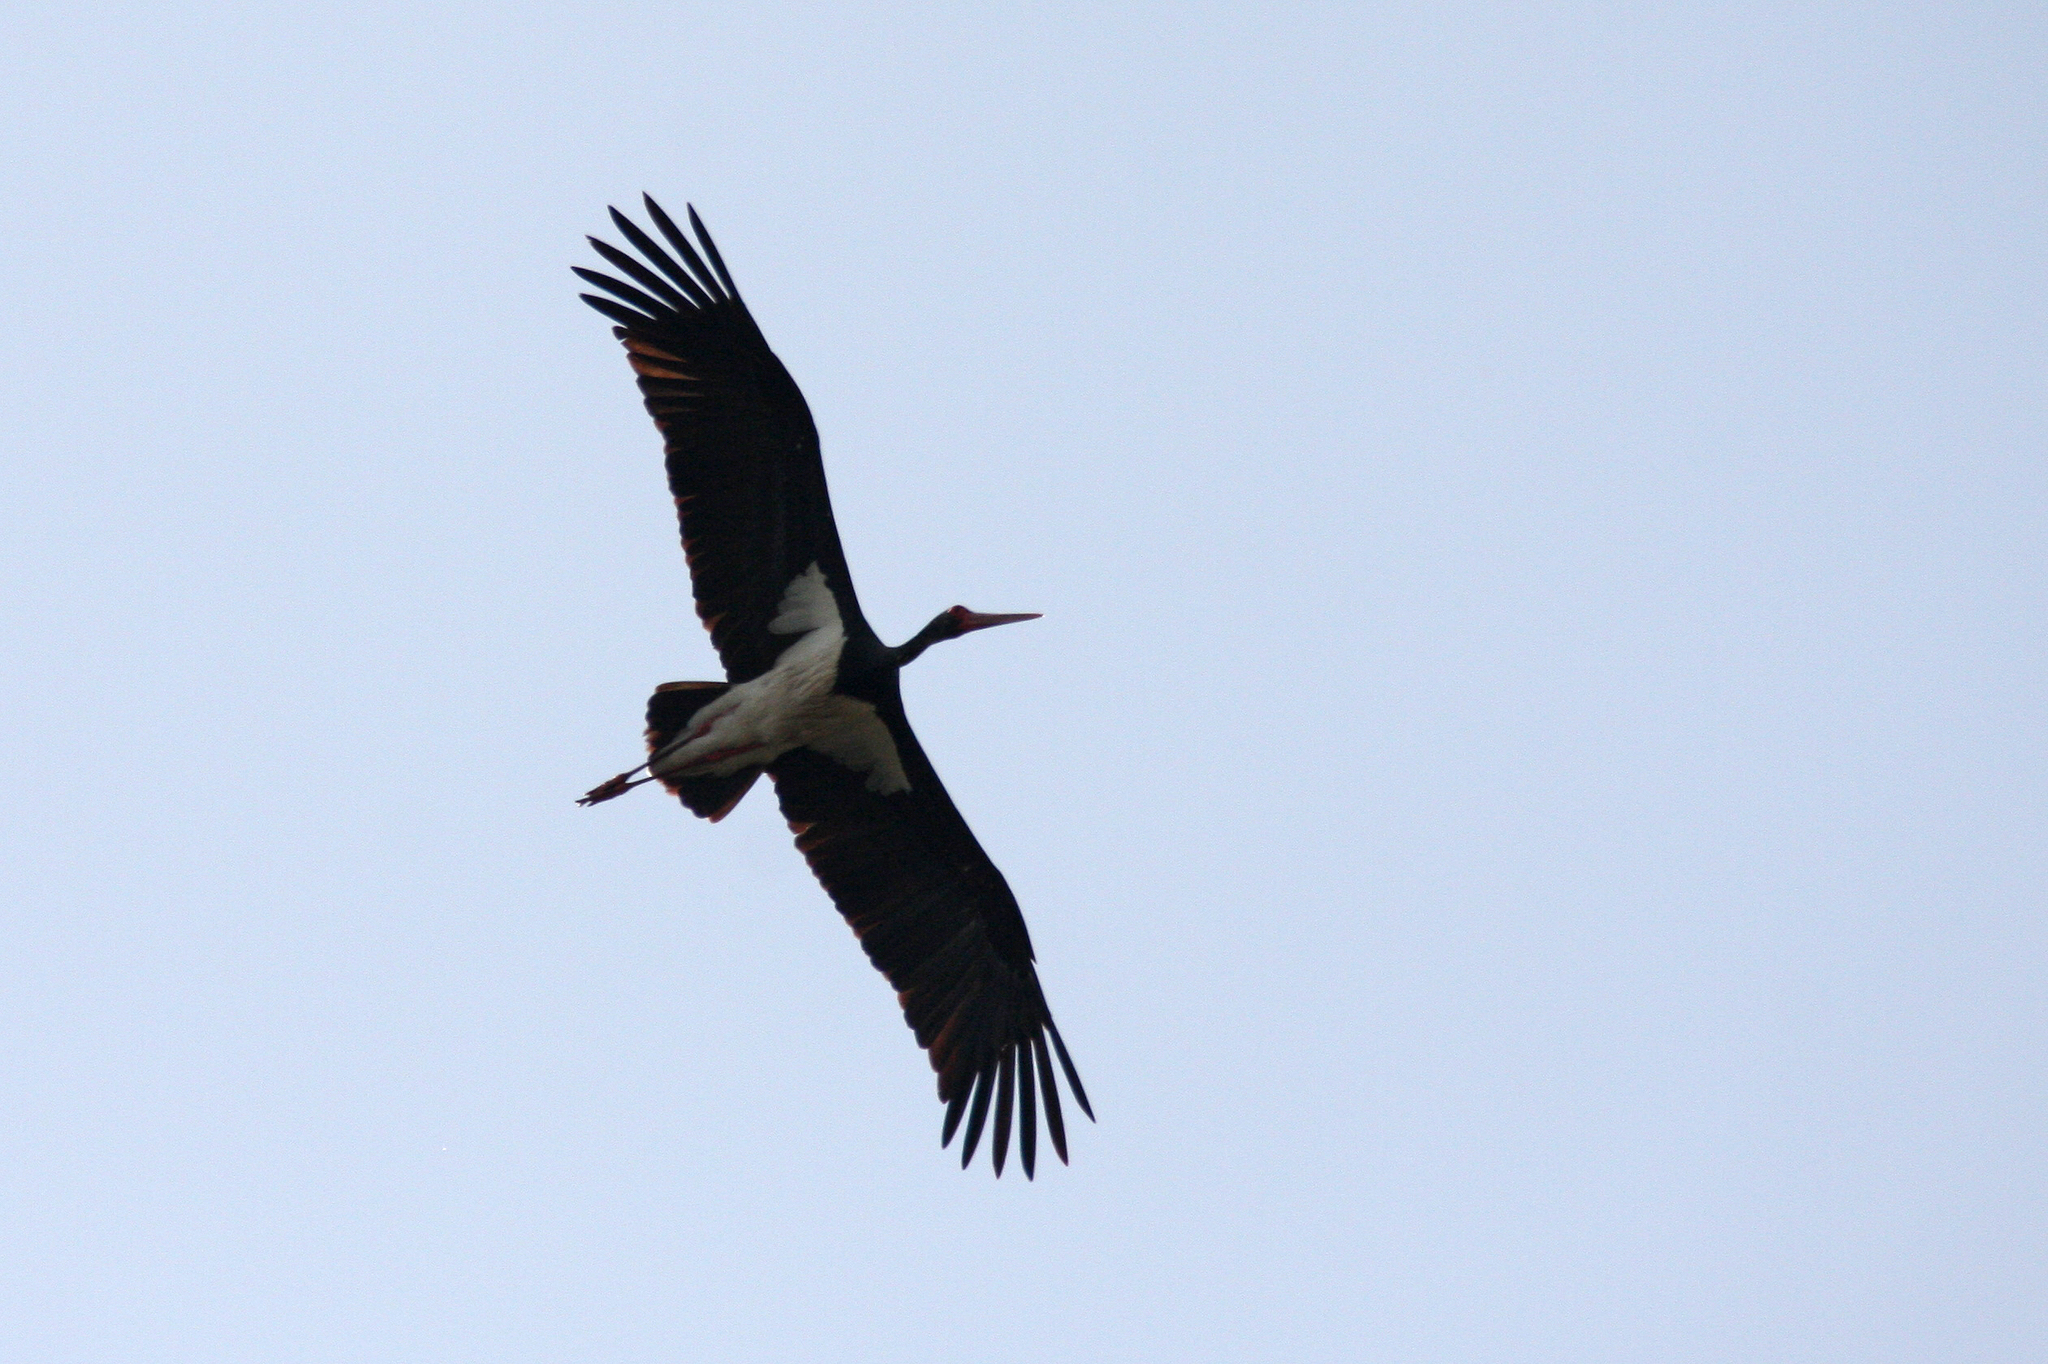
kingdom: Animalia
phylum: Chordata
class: Aves
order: Ciconiiformes
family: Ciconiidae
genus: Ciconia
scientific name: Ciconia nigra
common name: Black stork
